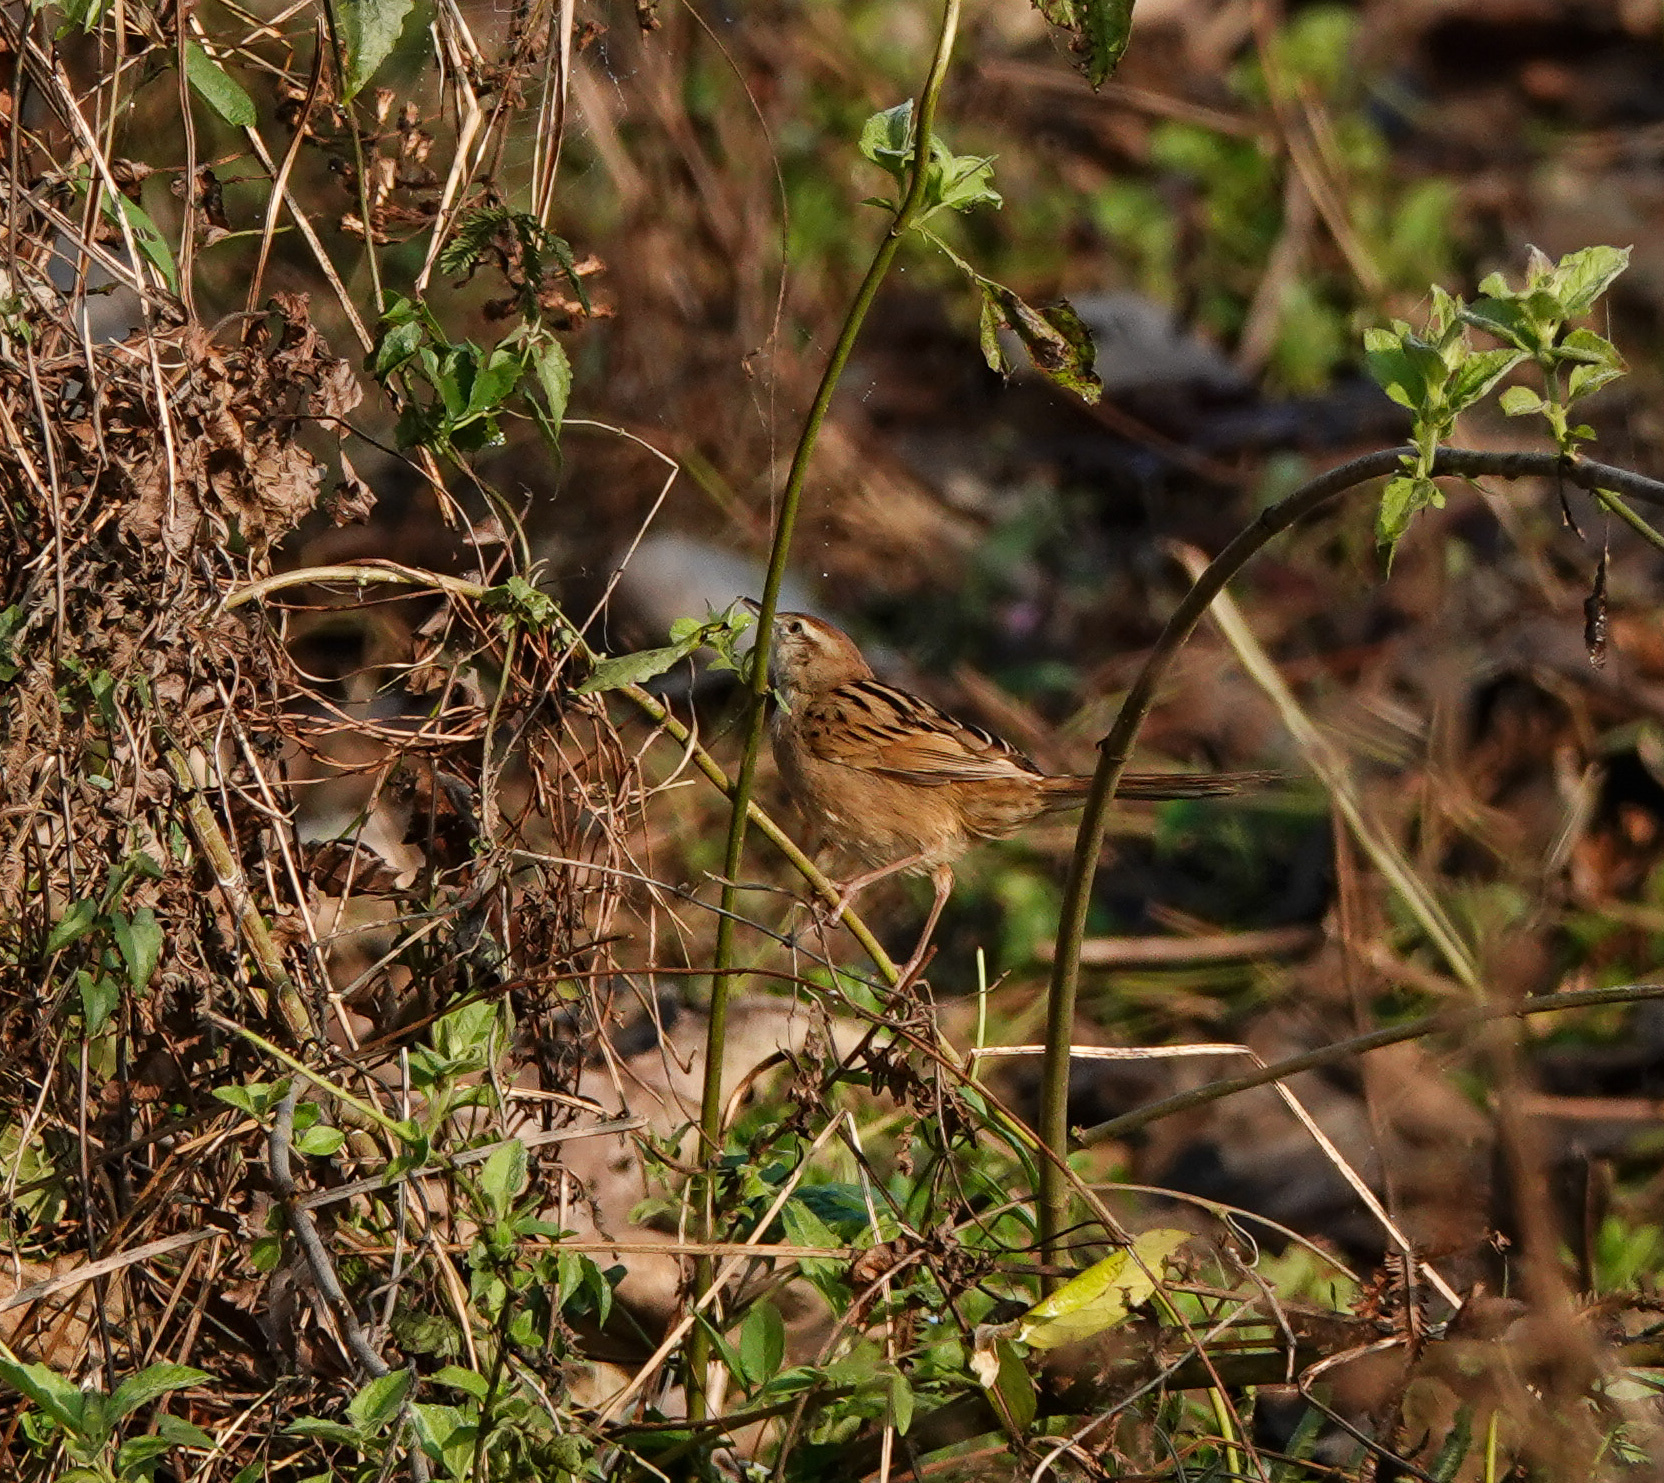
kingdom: Animalia
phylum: Chordata
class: Aves
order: Passeriformes
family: Locustellidae
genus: Megalurus
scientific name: Megalurus palustris
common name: Striated grassbird
